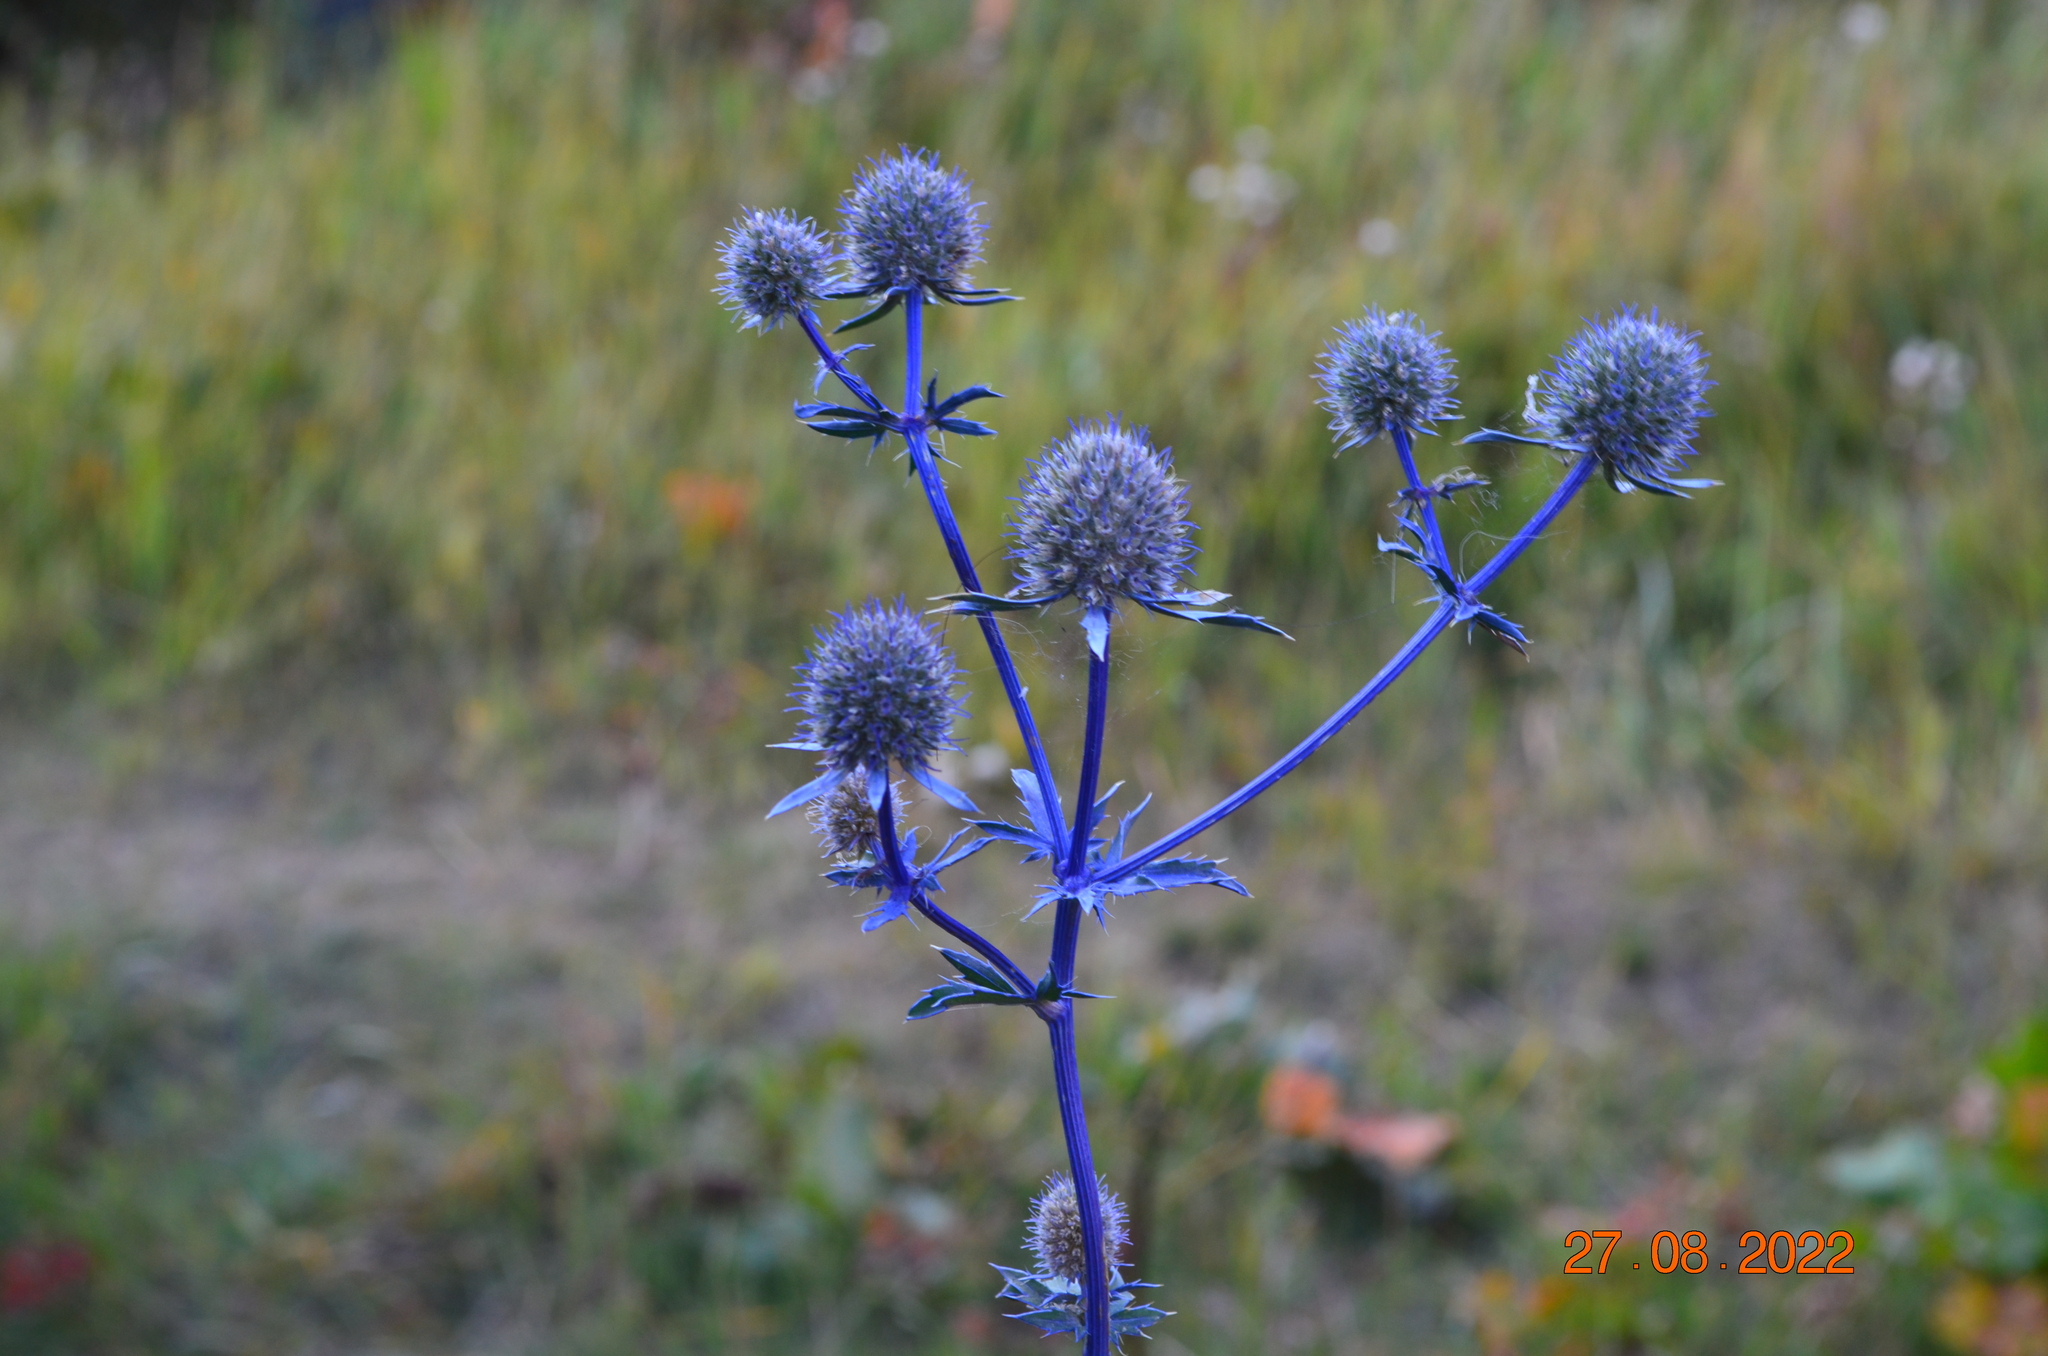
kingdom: Plantae
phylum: Tracheophyta
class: Magnoliopsida
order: Apiales
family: Apiaceae
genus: Eryngium
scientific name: Eryngium planum
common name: Blue eryngo
